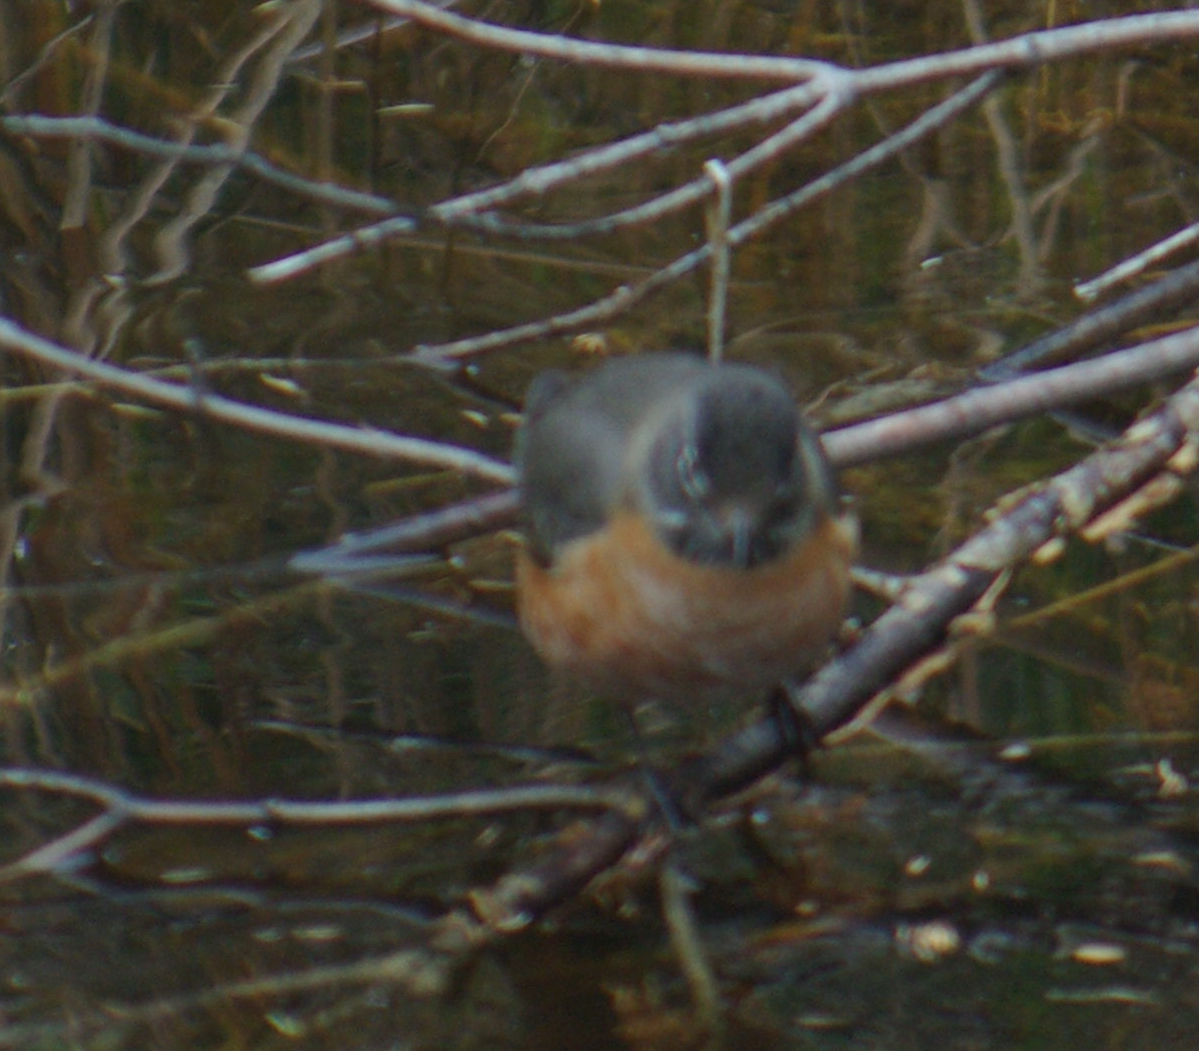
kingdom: Animalia
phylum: Chordata
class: Aves
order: Passeriformes
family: Turdidae
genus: Turdus
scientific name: Turdus migratorius
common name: American robin
